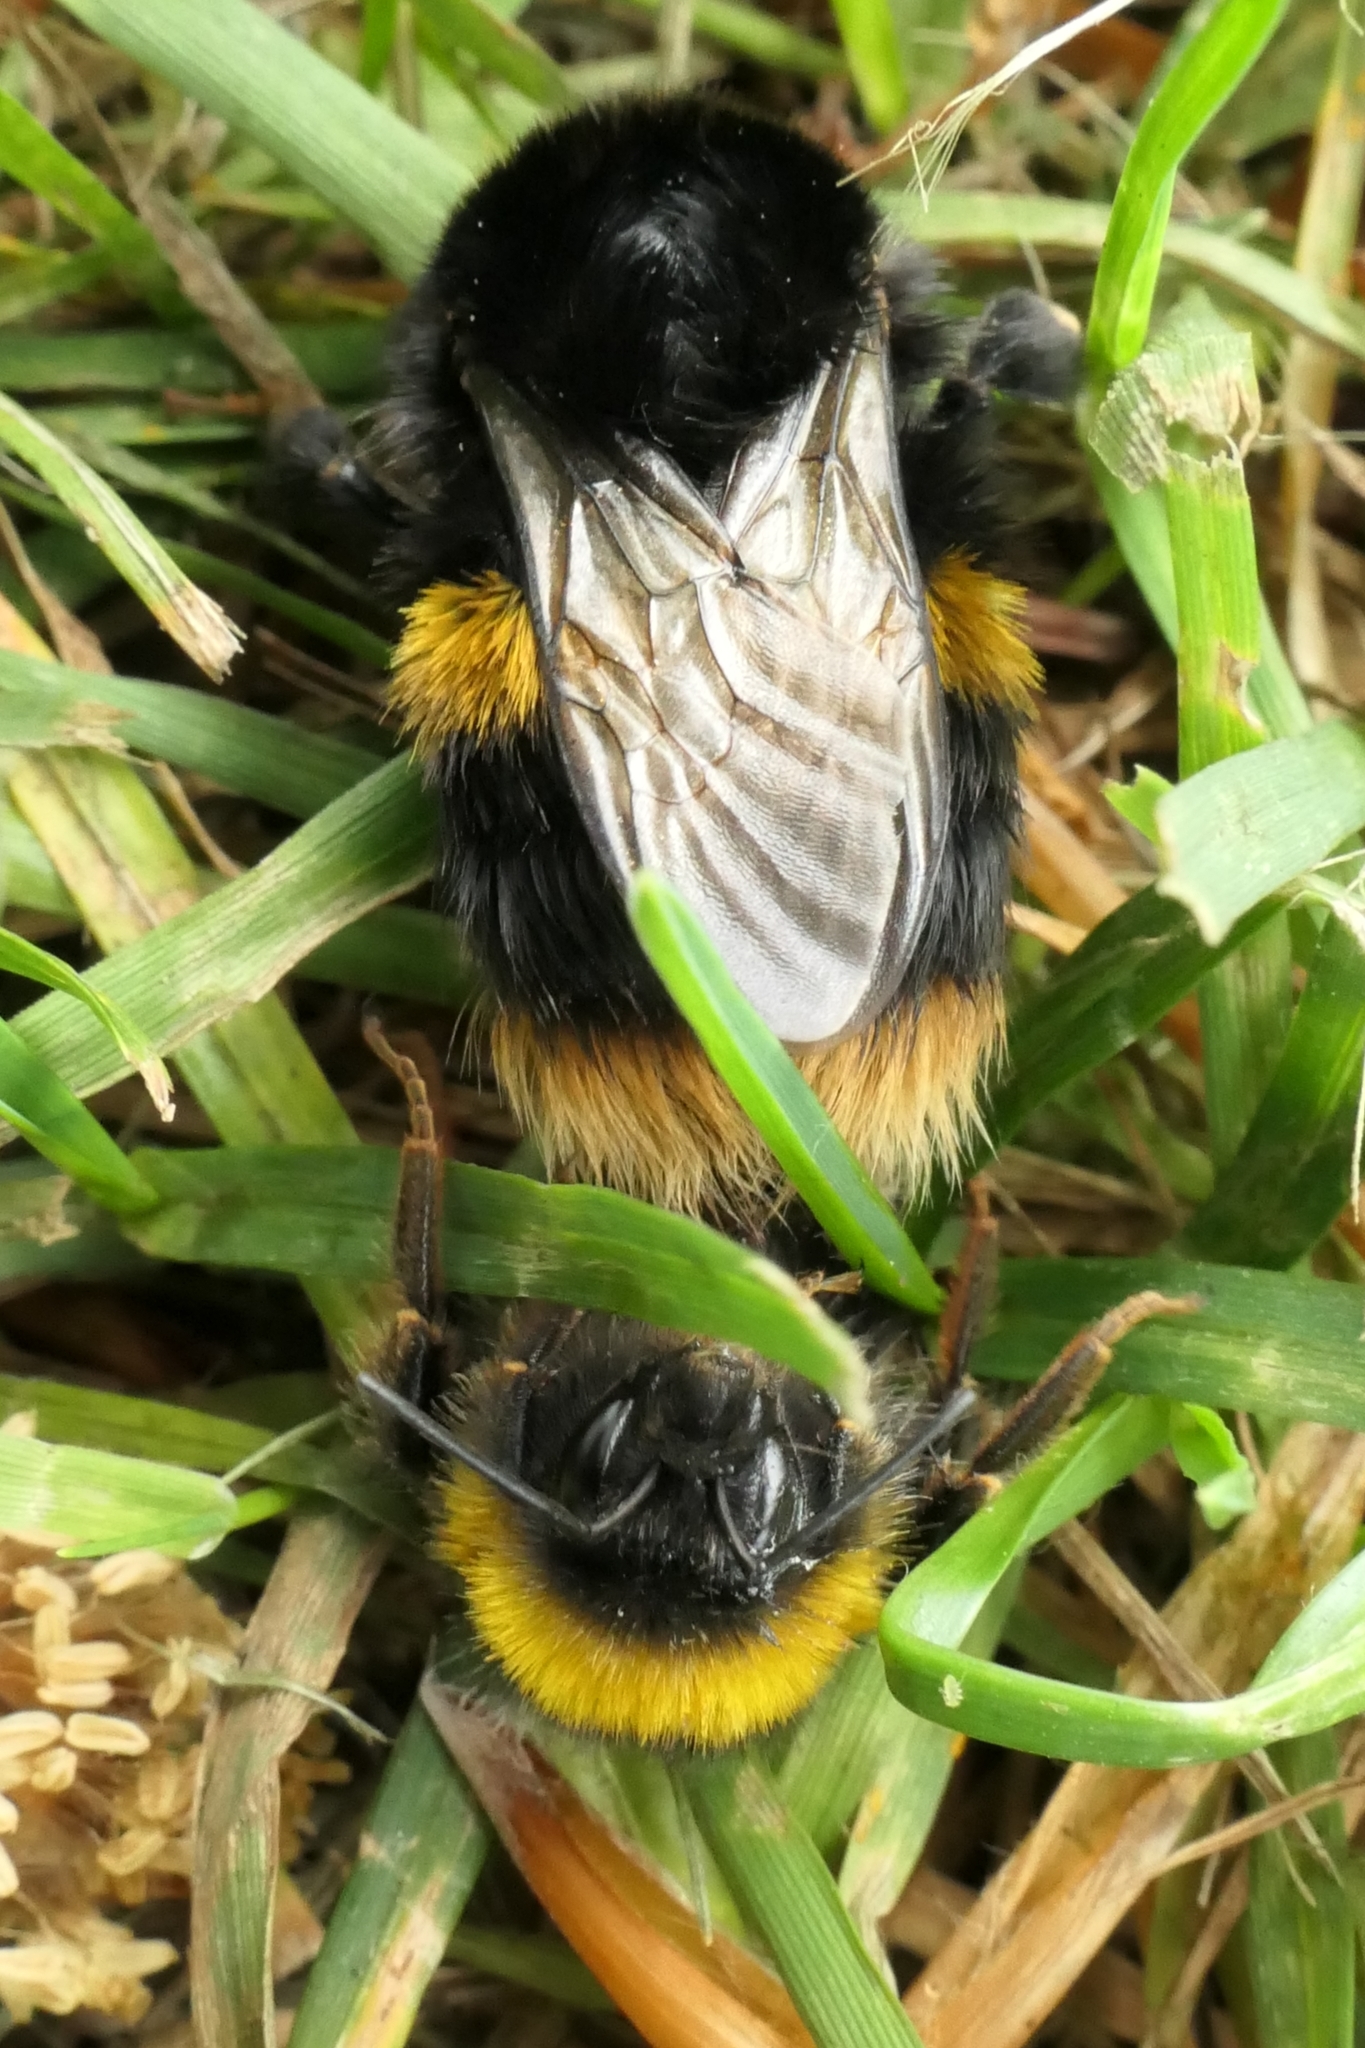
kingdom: Animalia
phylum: Arthropoda
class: Insecta
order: Hymenoptera
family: Apidae
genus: Bombus
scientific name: Bombus terrestris
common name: Buff-tailed bumblebee
